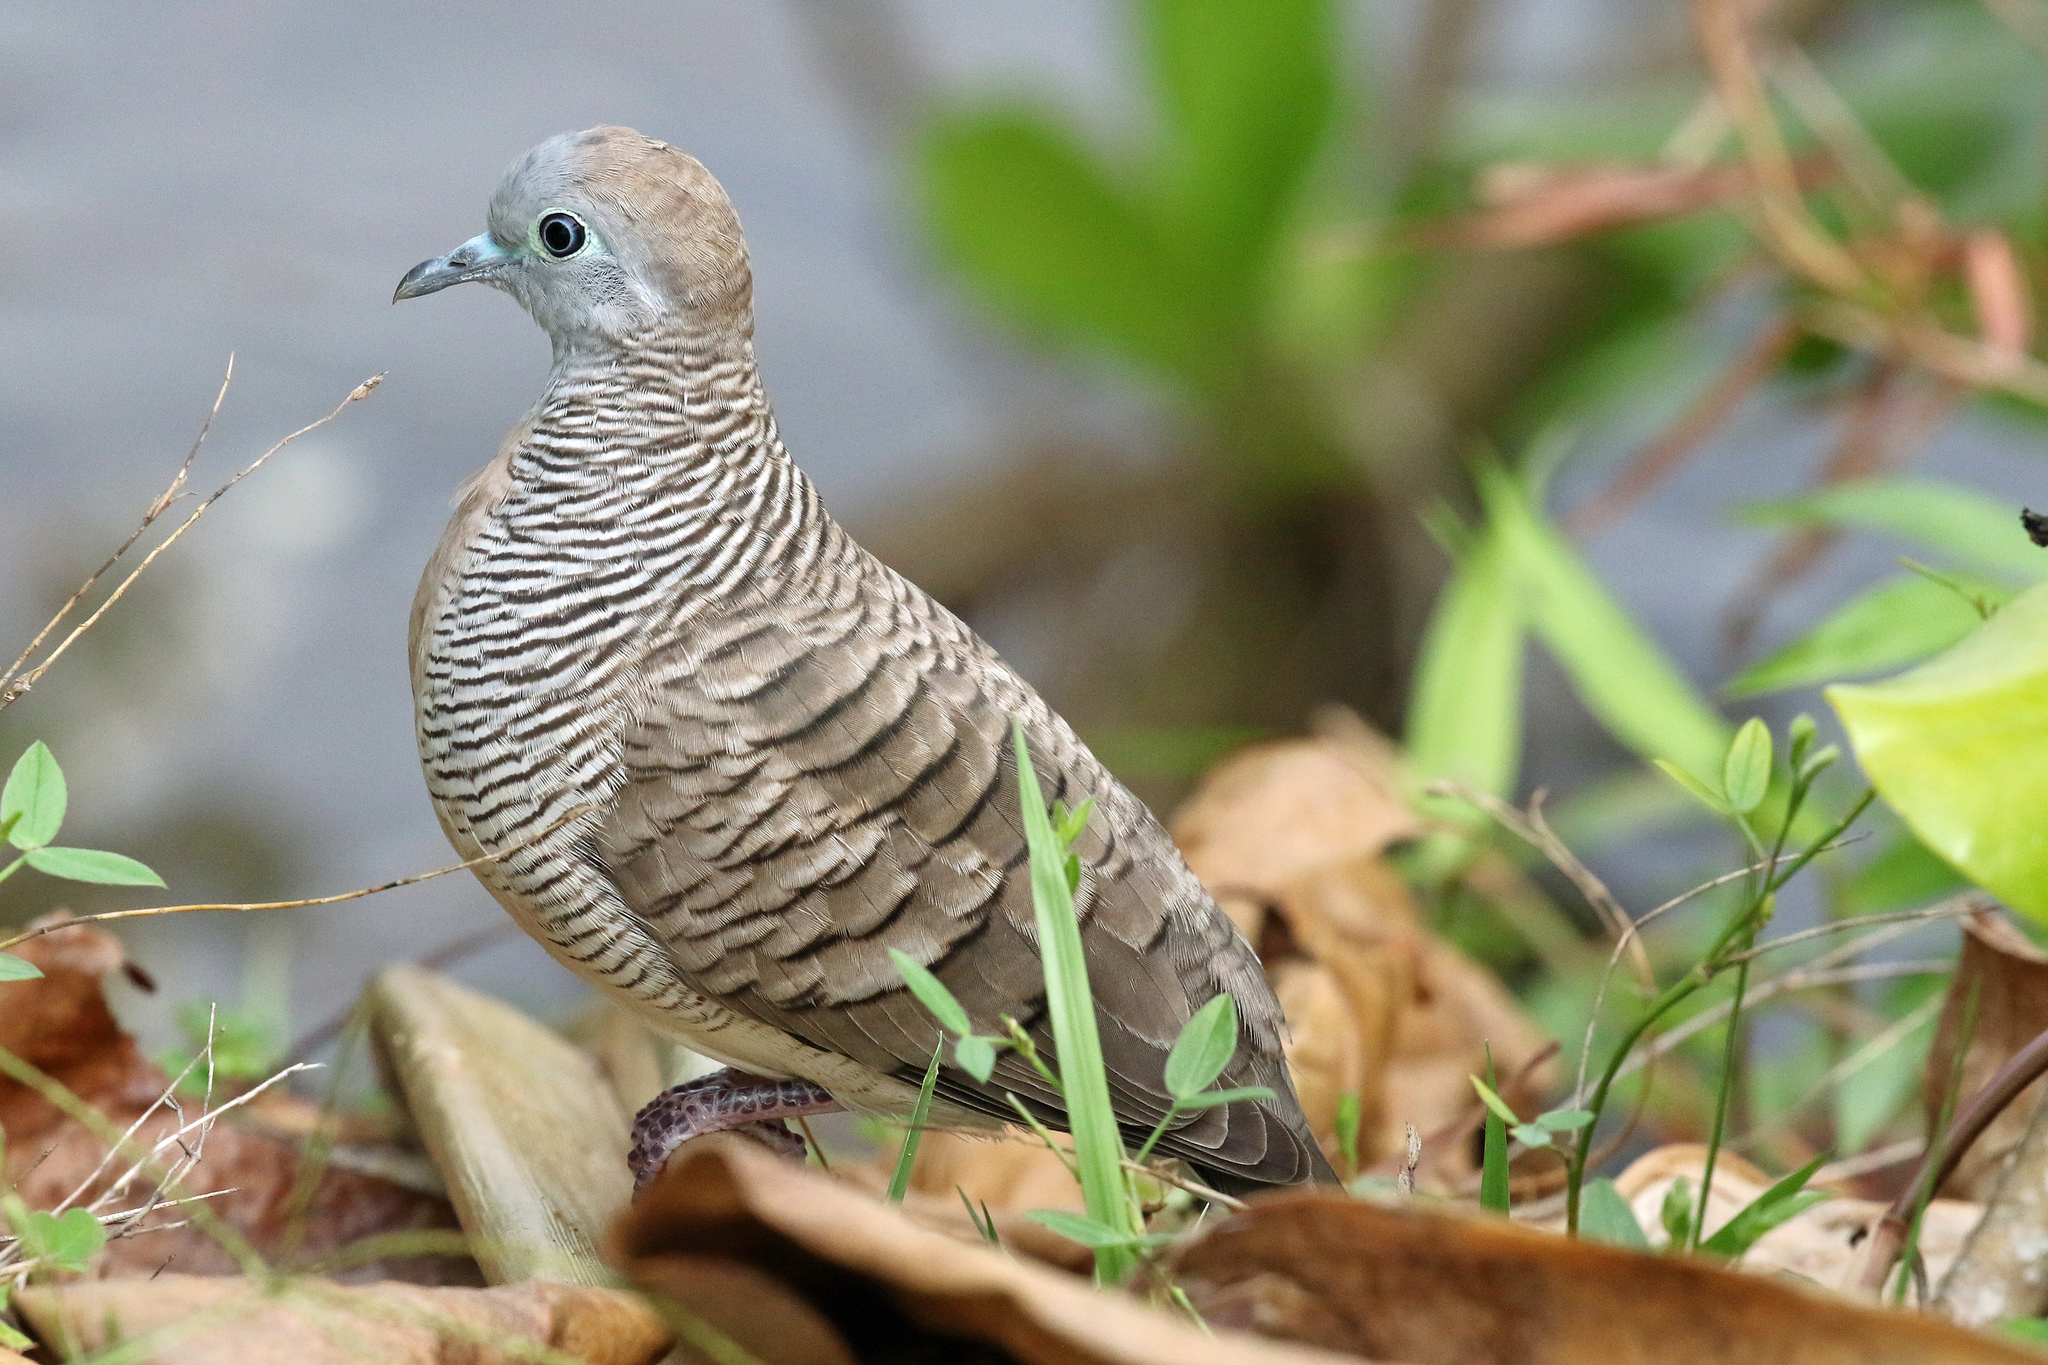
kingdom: Animalia
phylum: Chordata
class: Aves
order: Columbiformes
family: Columbidae
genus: Geopelia
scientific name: Geopelia striata
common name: Zebra dove
